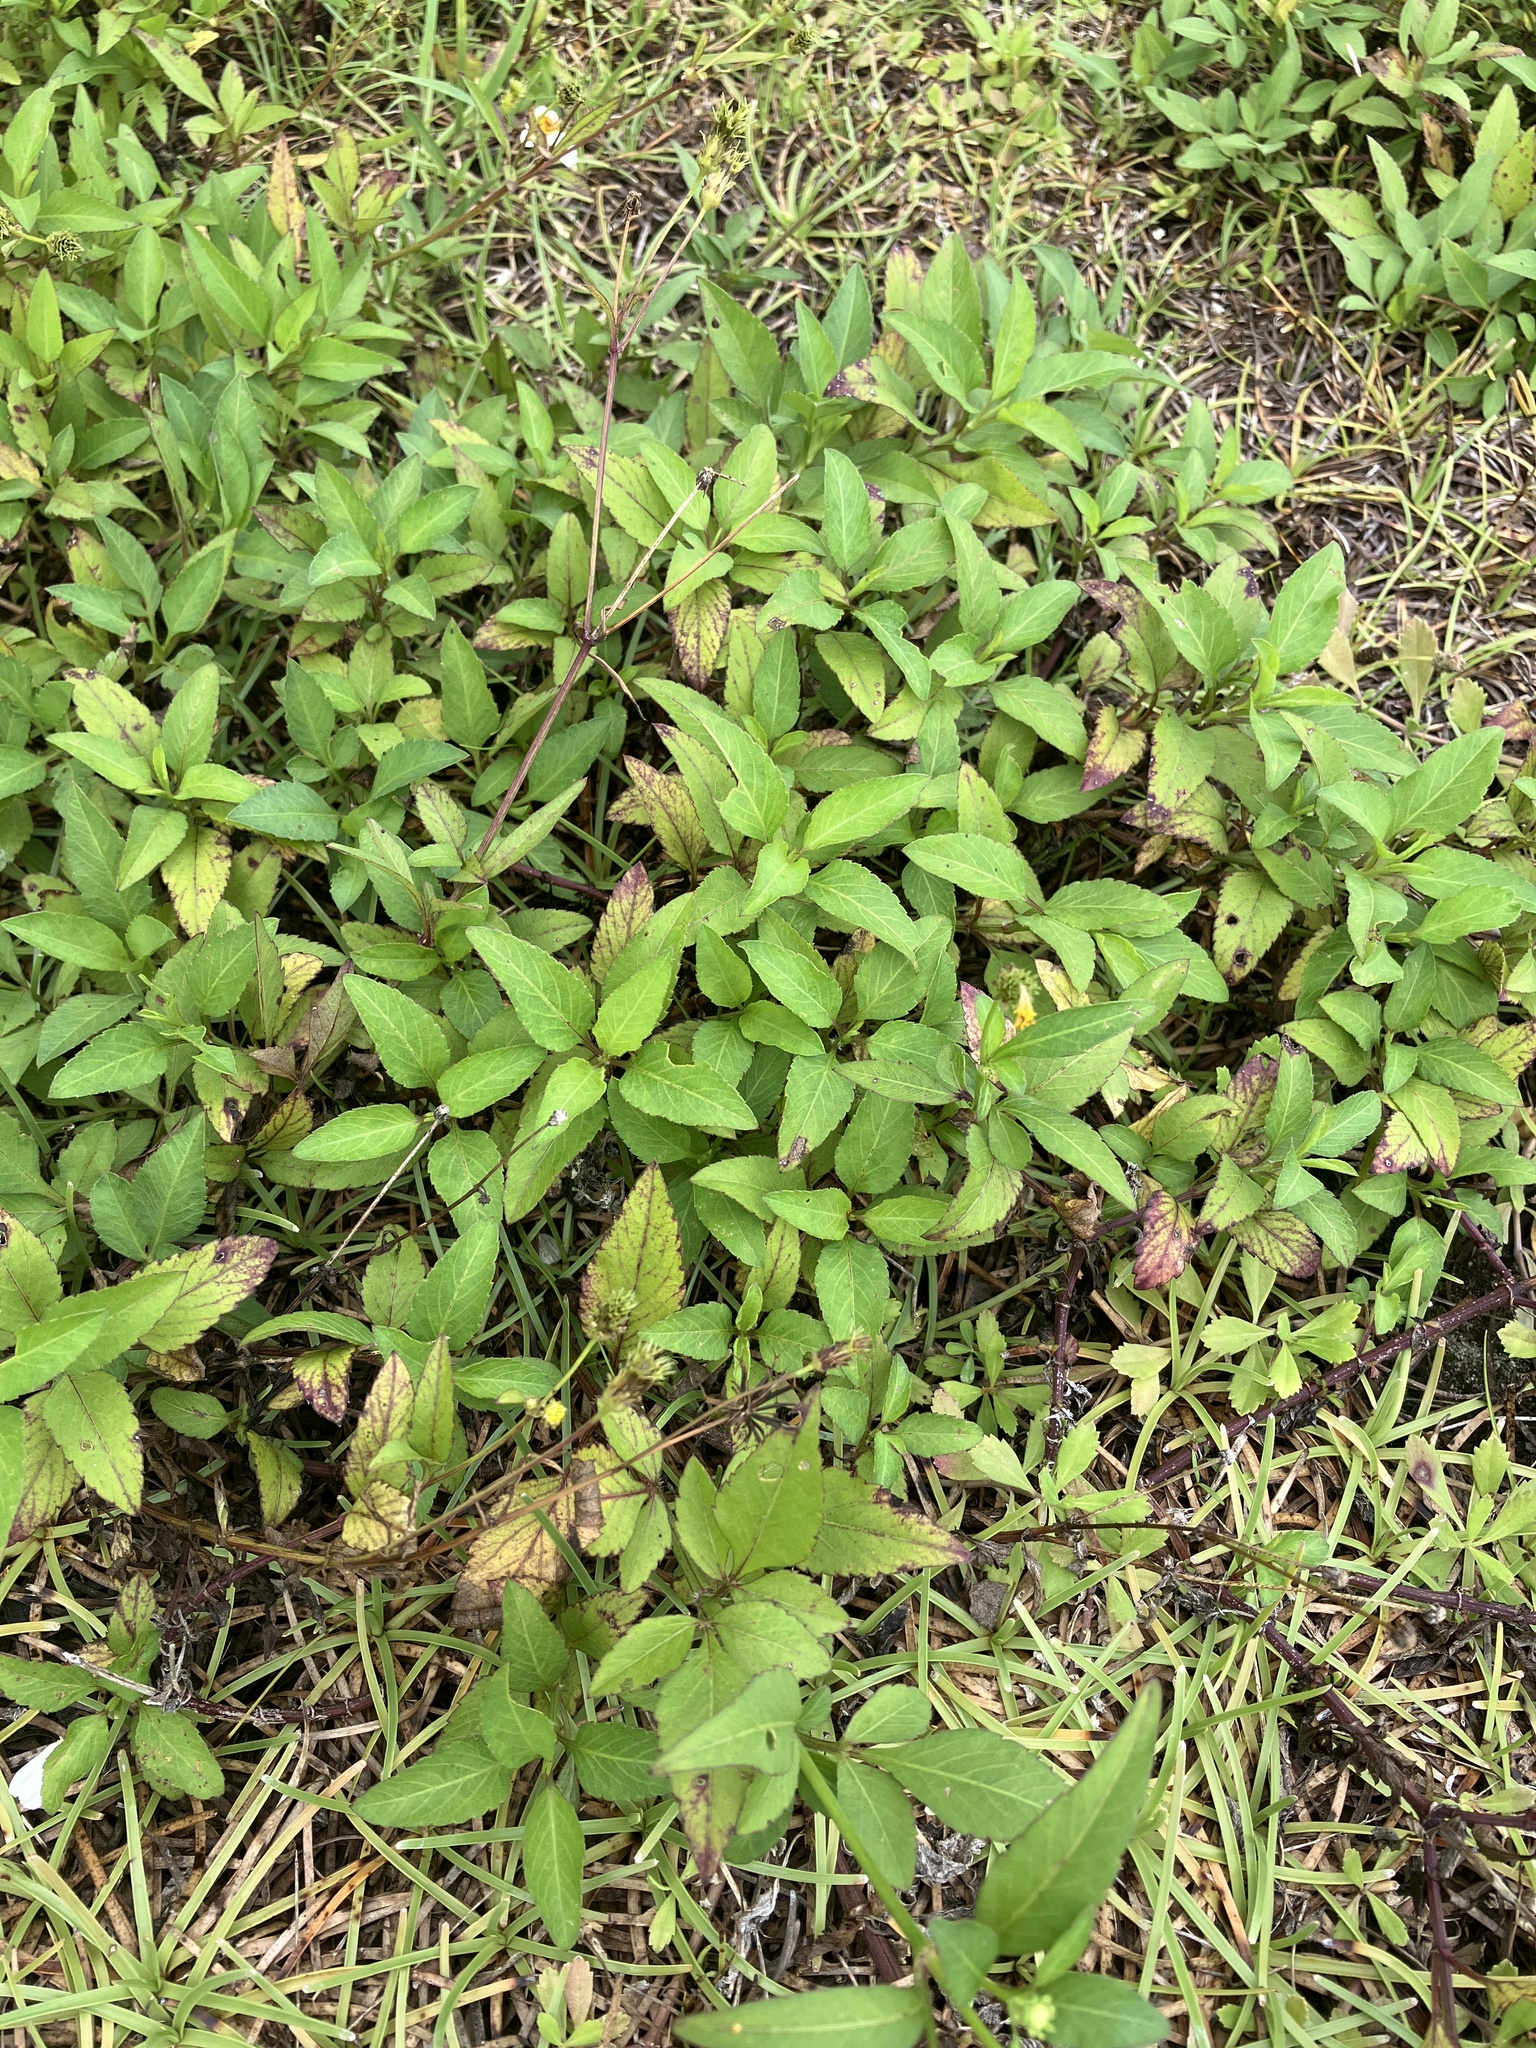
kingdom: Plantae
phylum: Tracheophyta
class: Magnoliopsida
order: Asterales
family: Asteraceae
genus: Bidens
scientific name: Bidens pilosa
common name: Black-jack
